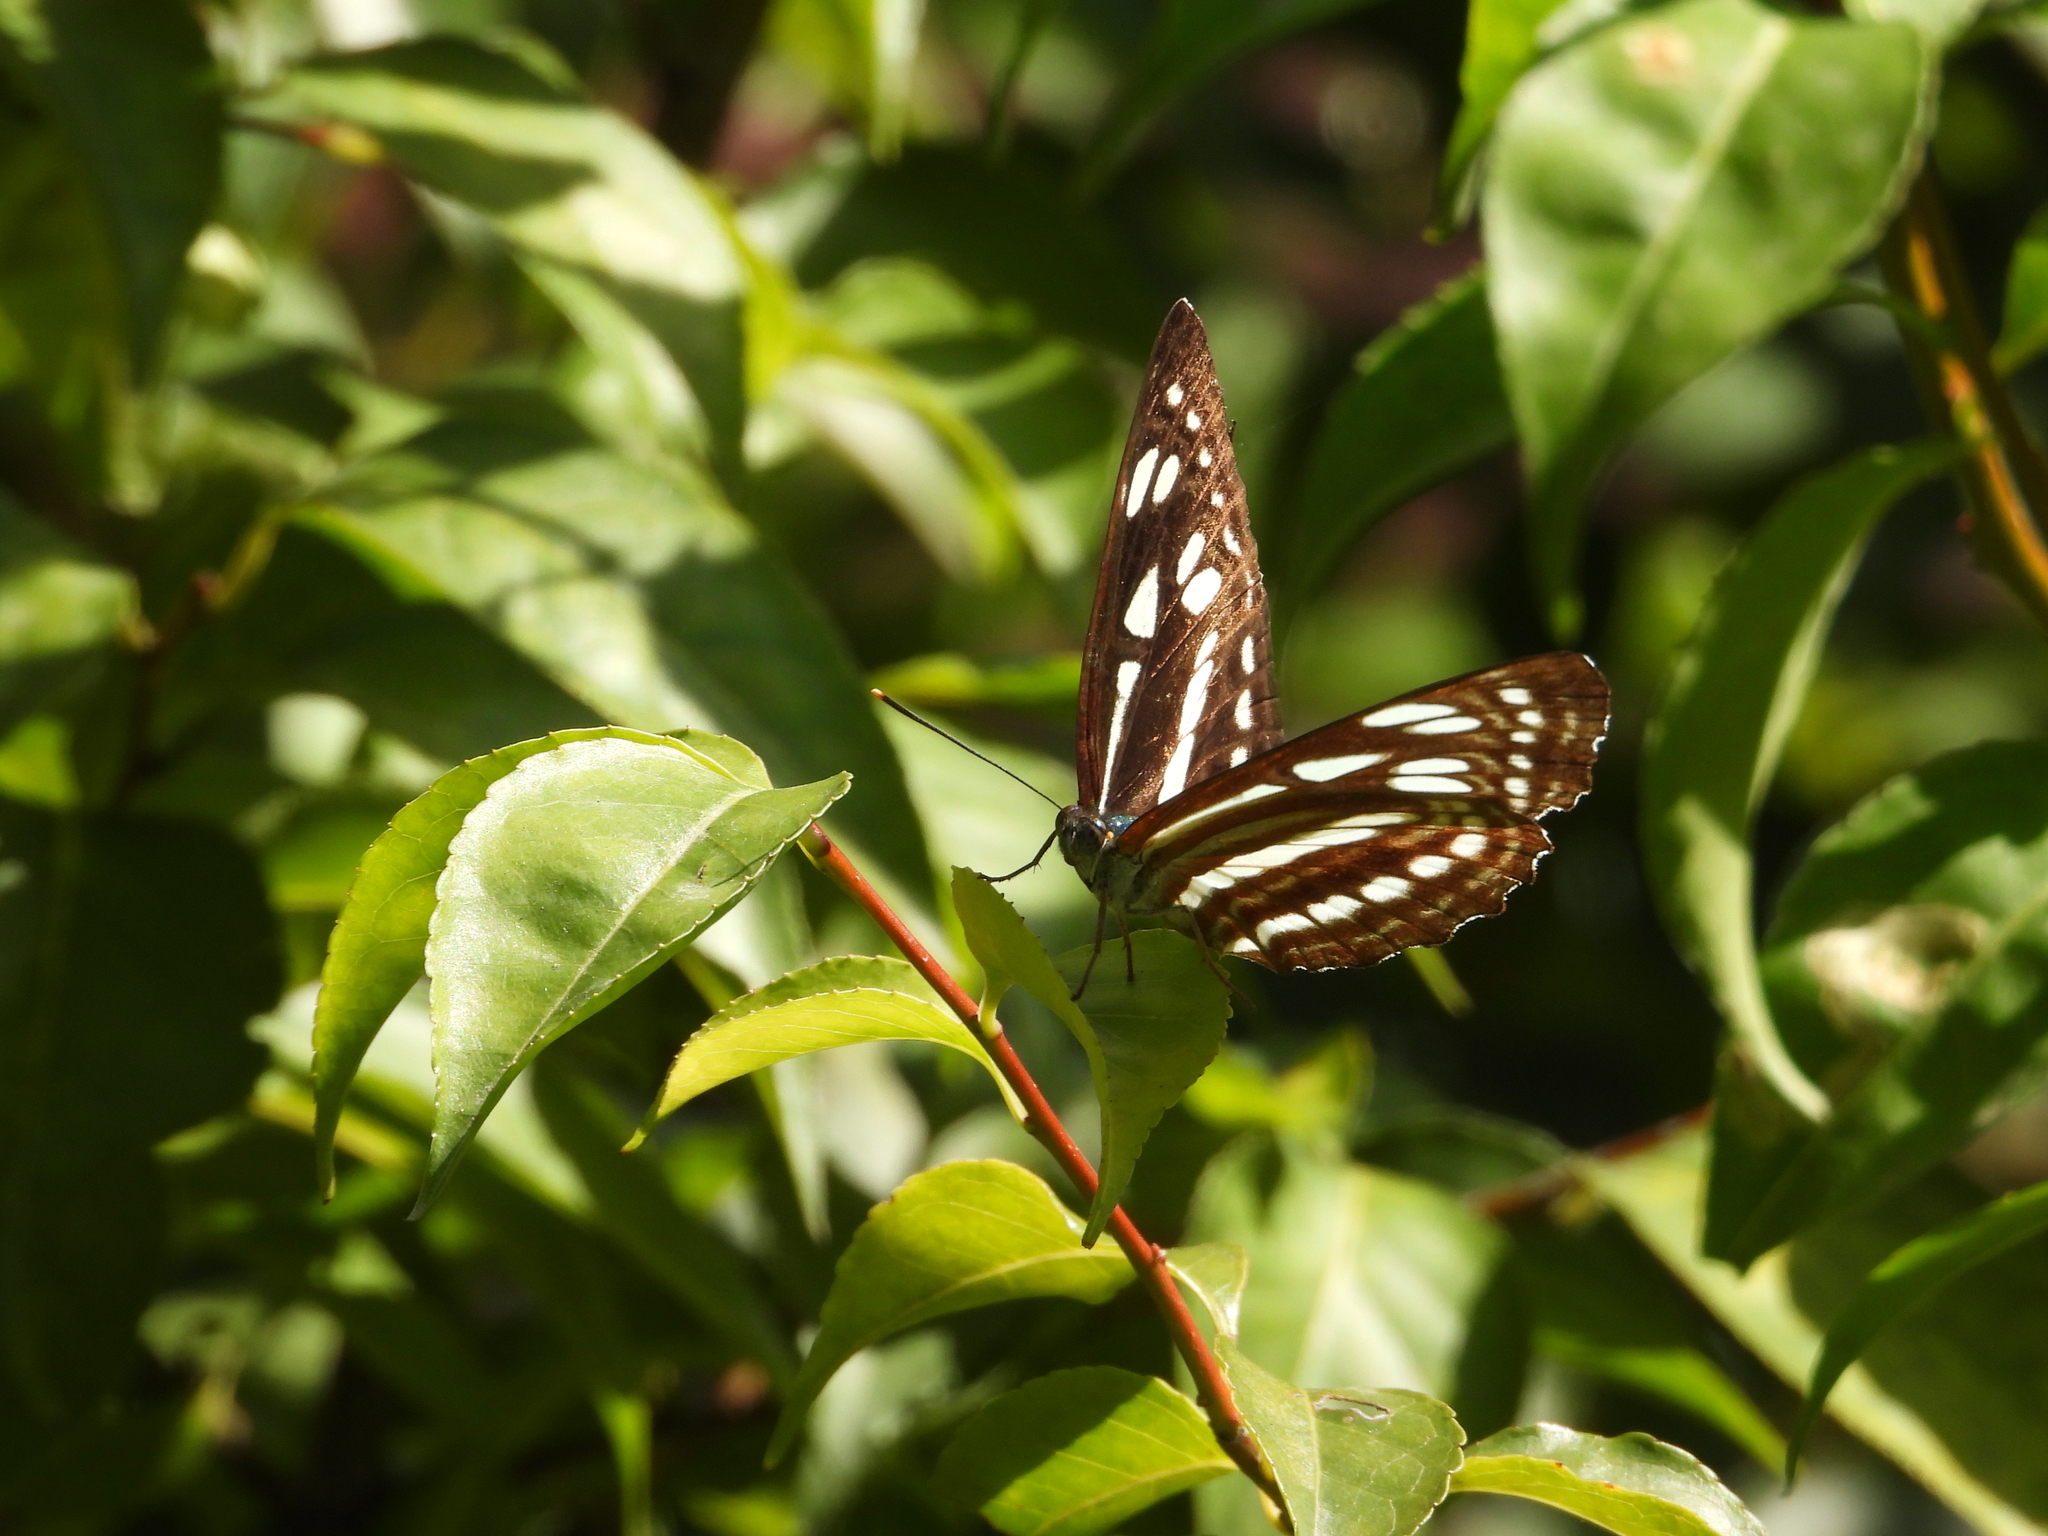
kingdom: Animalia
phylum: Arthropoda
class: Insecta
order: Lepidoptera
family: Nymphalidae
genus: Phaedyma
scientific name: Phaedyma columella
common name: Short banded sailer
